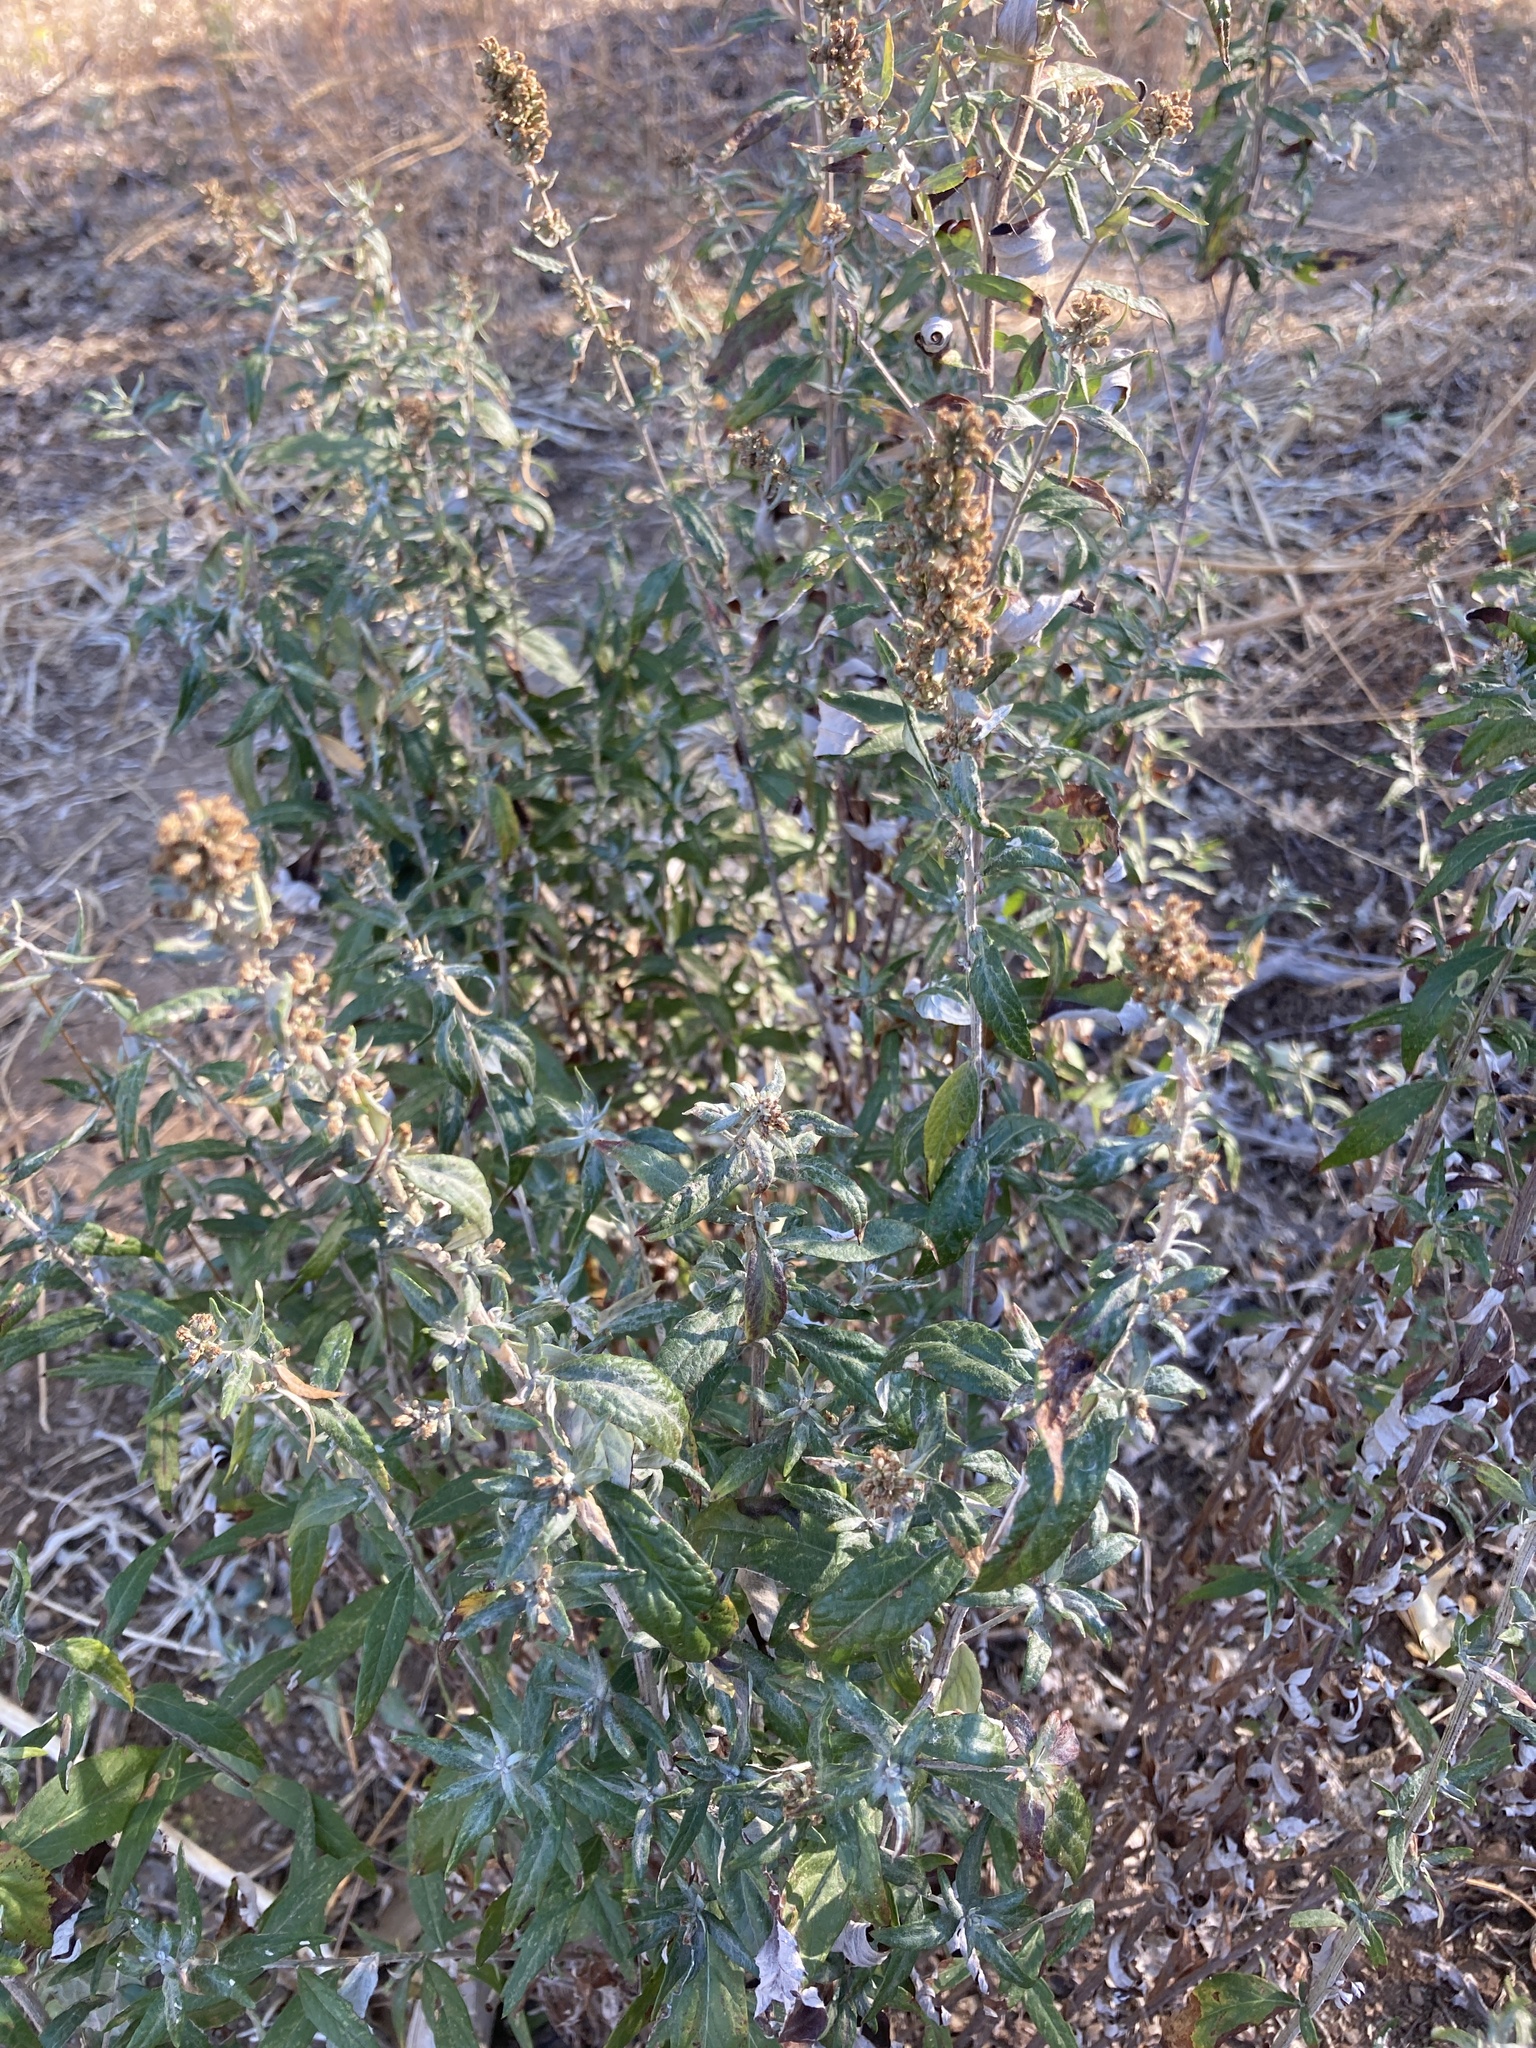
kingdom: Plantae
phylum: Tracheophyta
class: Magnoliopsida
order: Asterales
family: Asteraceae
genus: Artemisia
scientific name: Artemisia douglasiana
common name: Northwest mugwort
